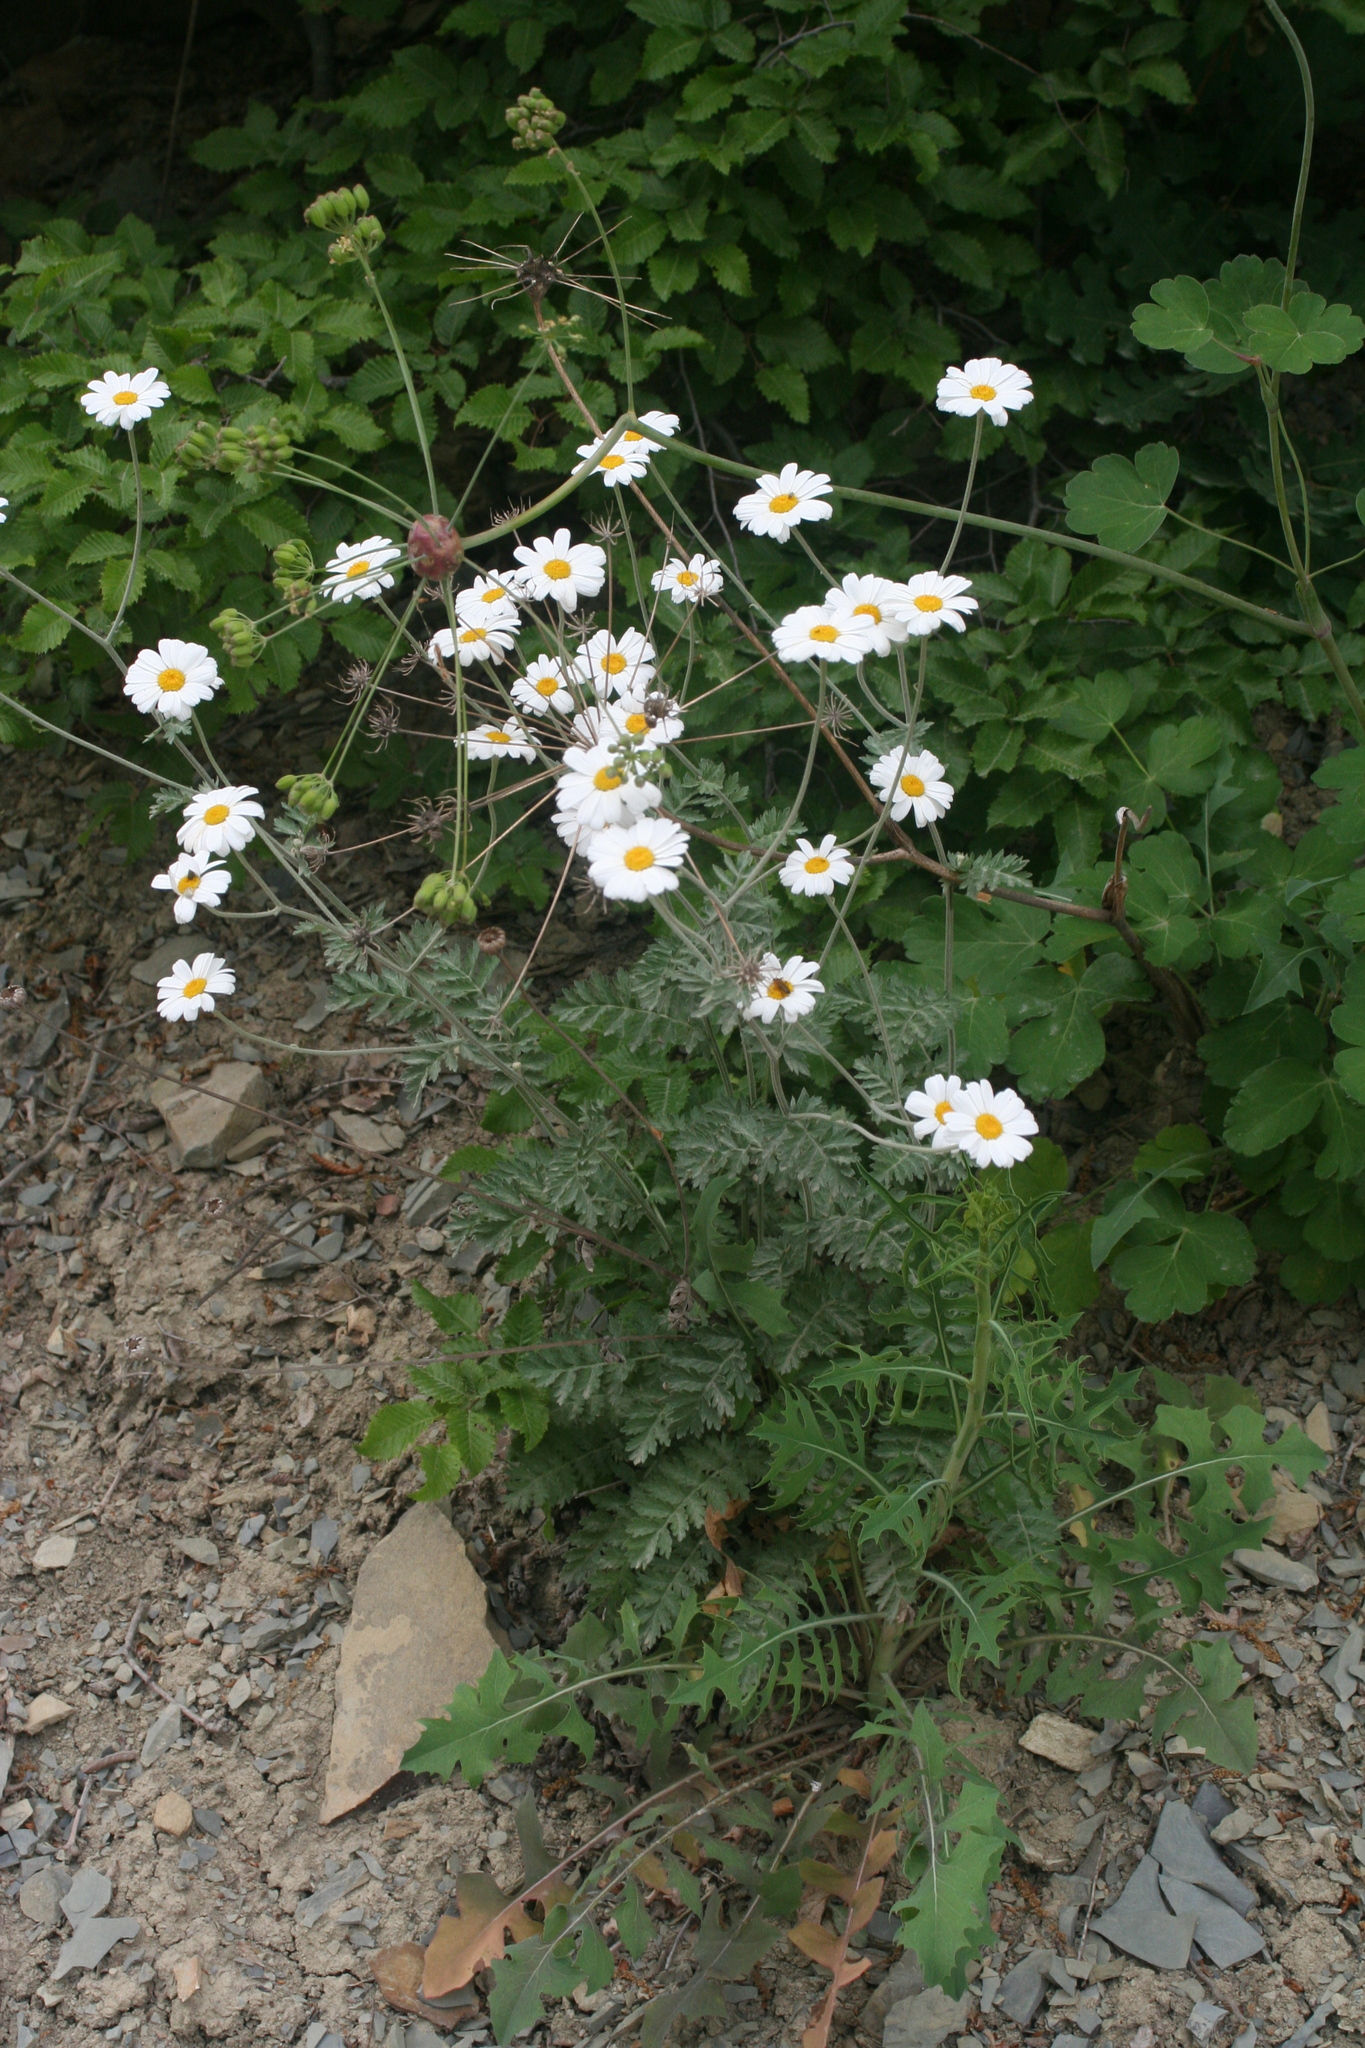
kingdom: Plantae
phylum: Tracheophyta
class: Magnoliopsida
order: Asterales
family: Asteraceae
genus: Tanacetum
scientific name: Tanacetum poteriifolium
